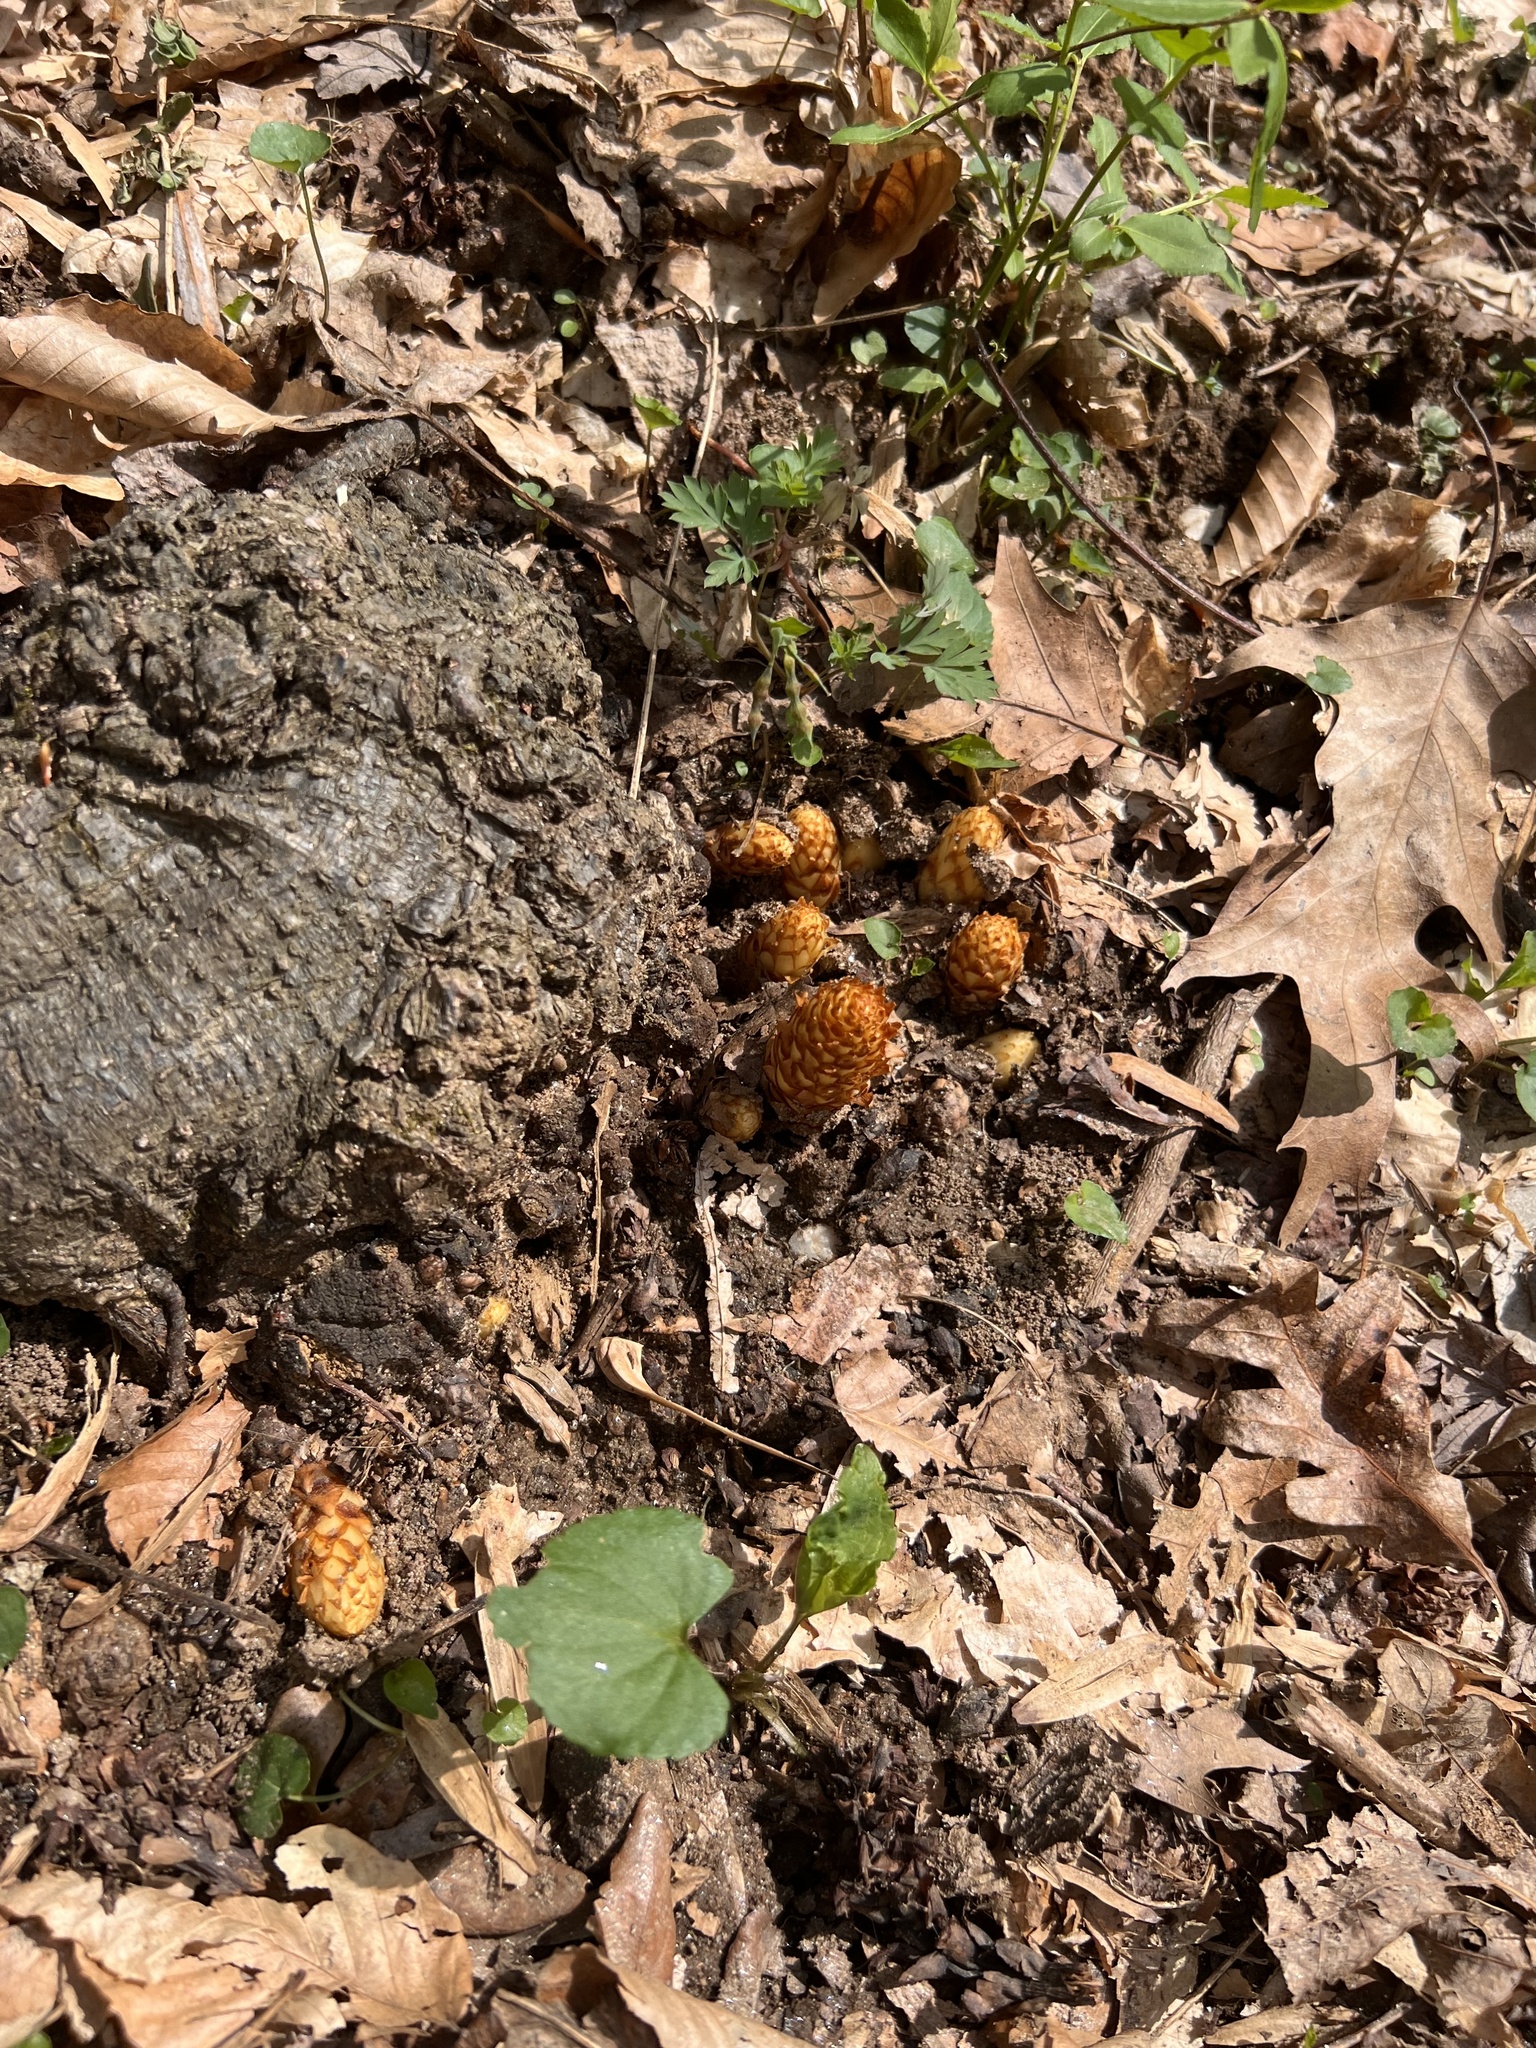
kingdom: Plantae
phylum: Tracheophyta
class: Magnoliopsida
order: Lamiales
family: Orobanchaceae
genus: Conopholis
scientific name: Conopholis americana
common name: American cancer-root
